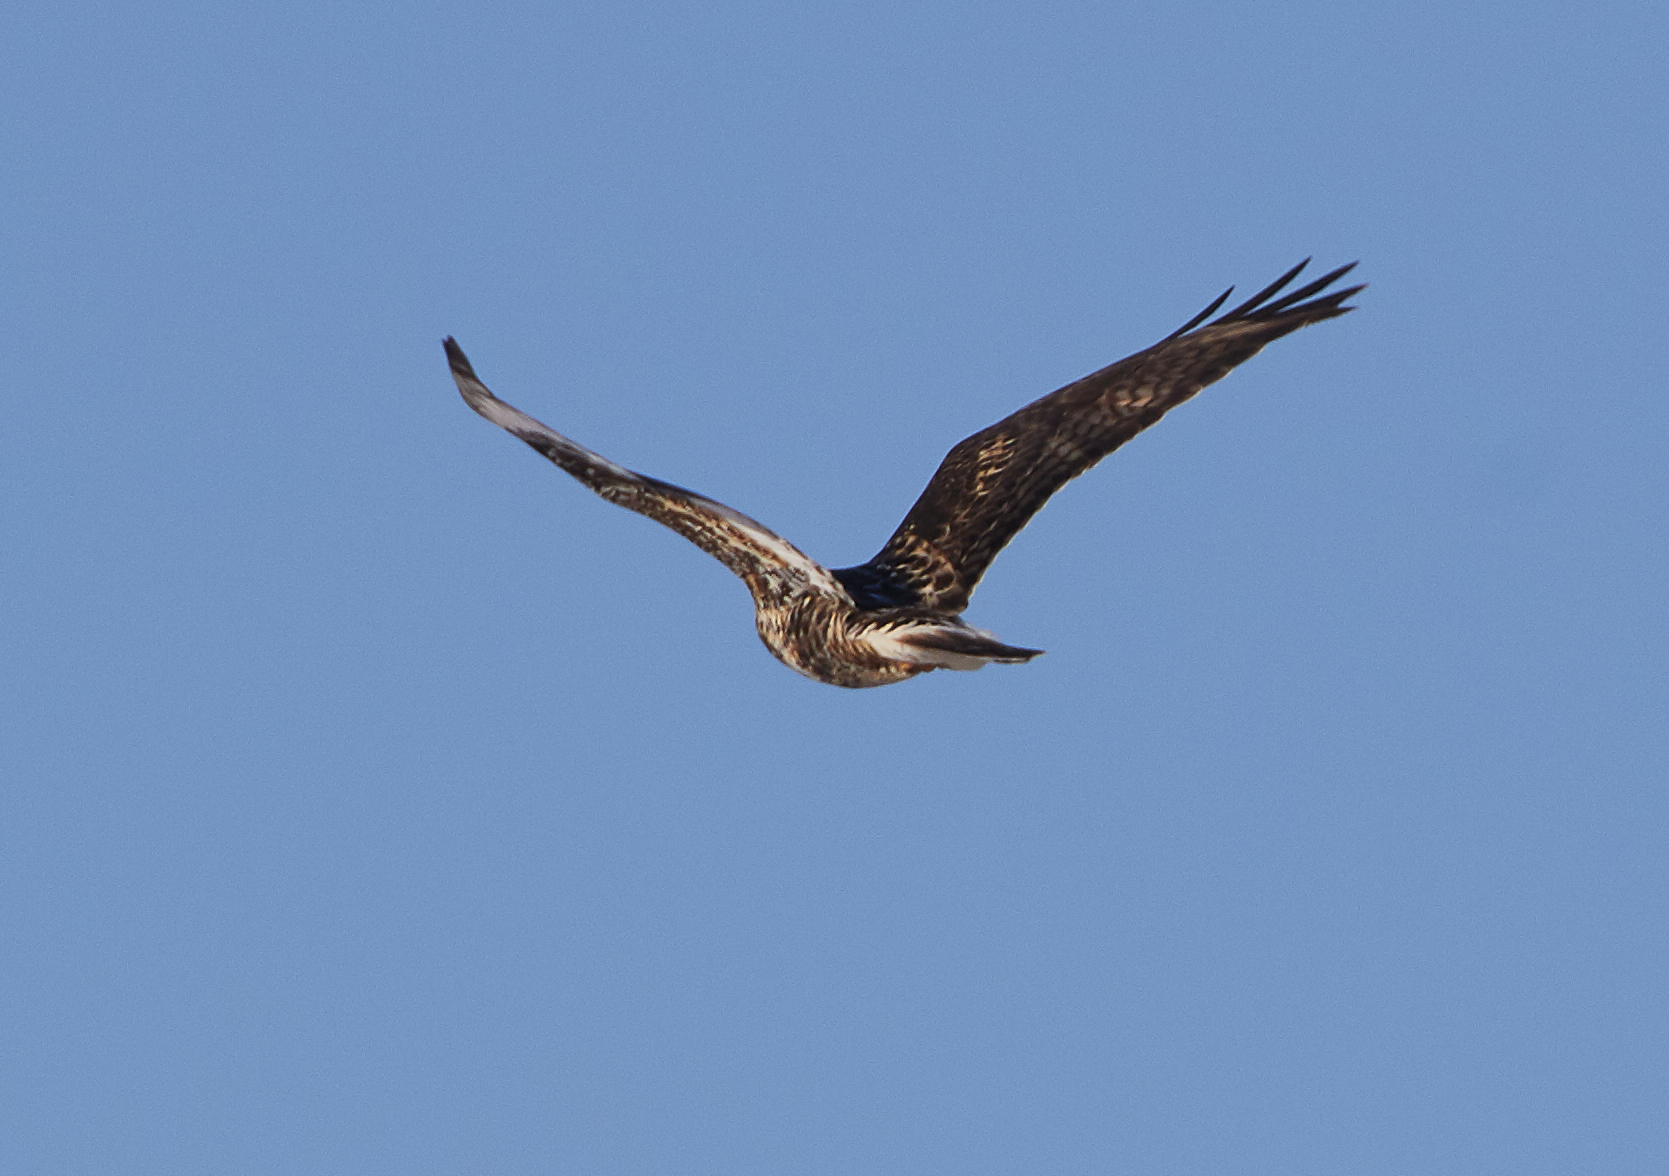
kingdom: Animalia
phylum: Chordata
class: Aves
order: Accipitriformes
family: Accipitridae
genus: Buteo
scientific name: Buteo lagopus
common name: Rough-legged buzzard
